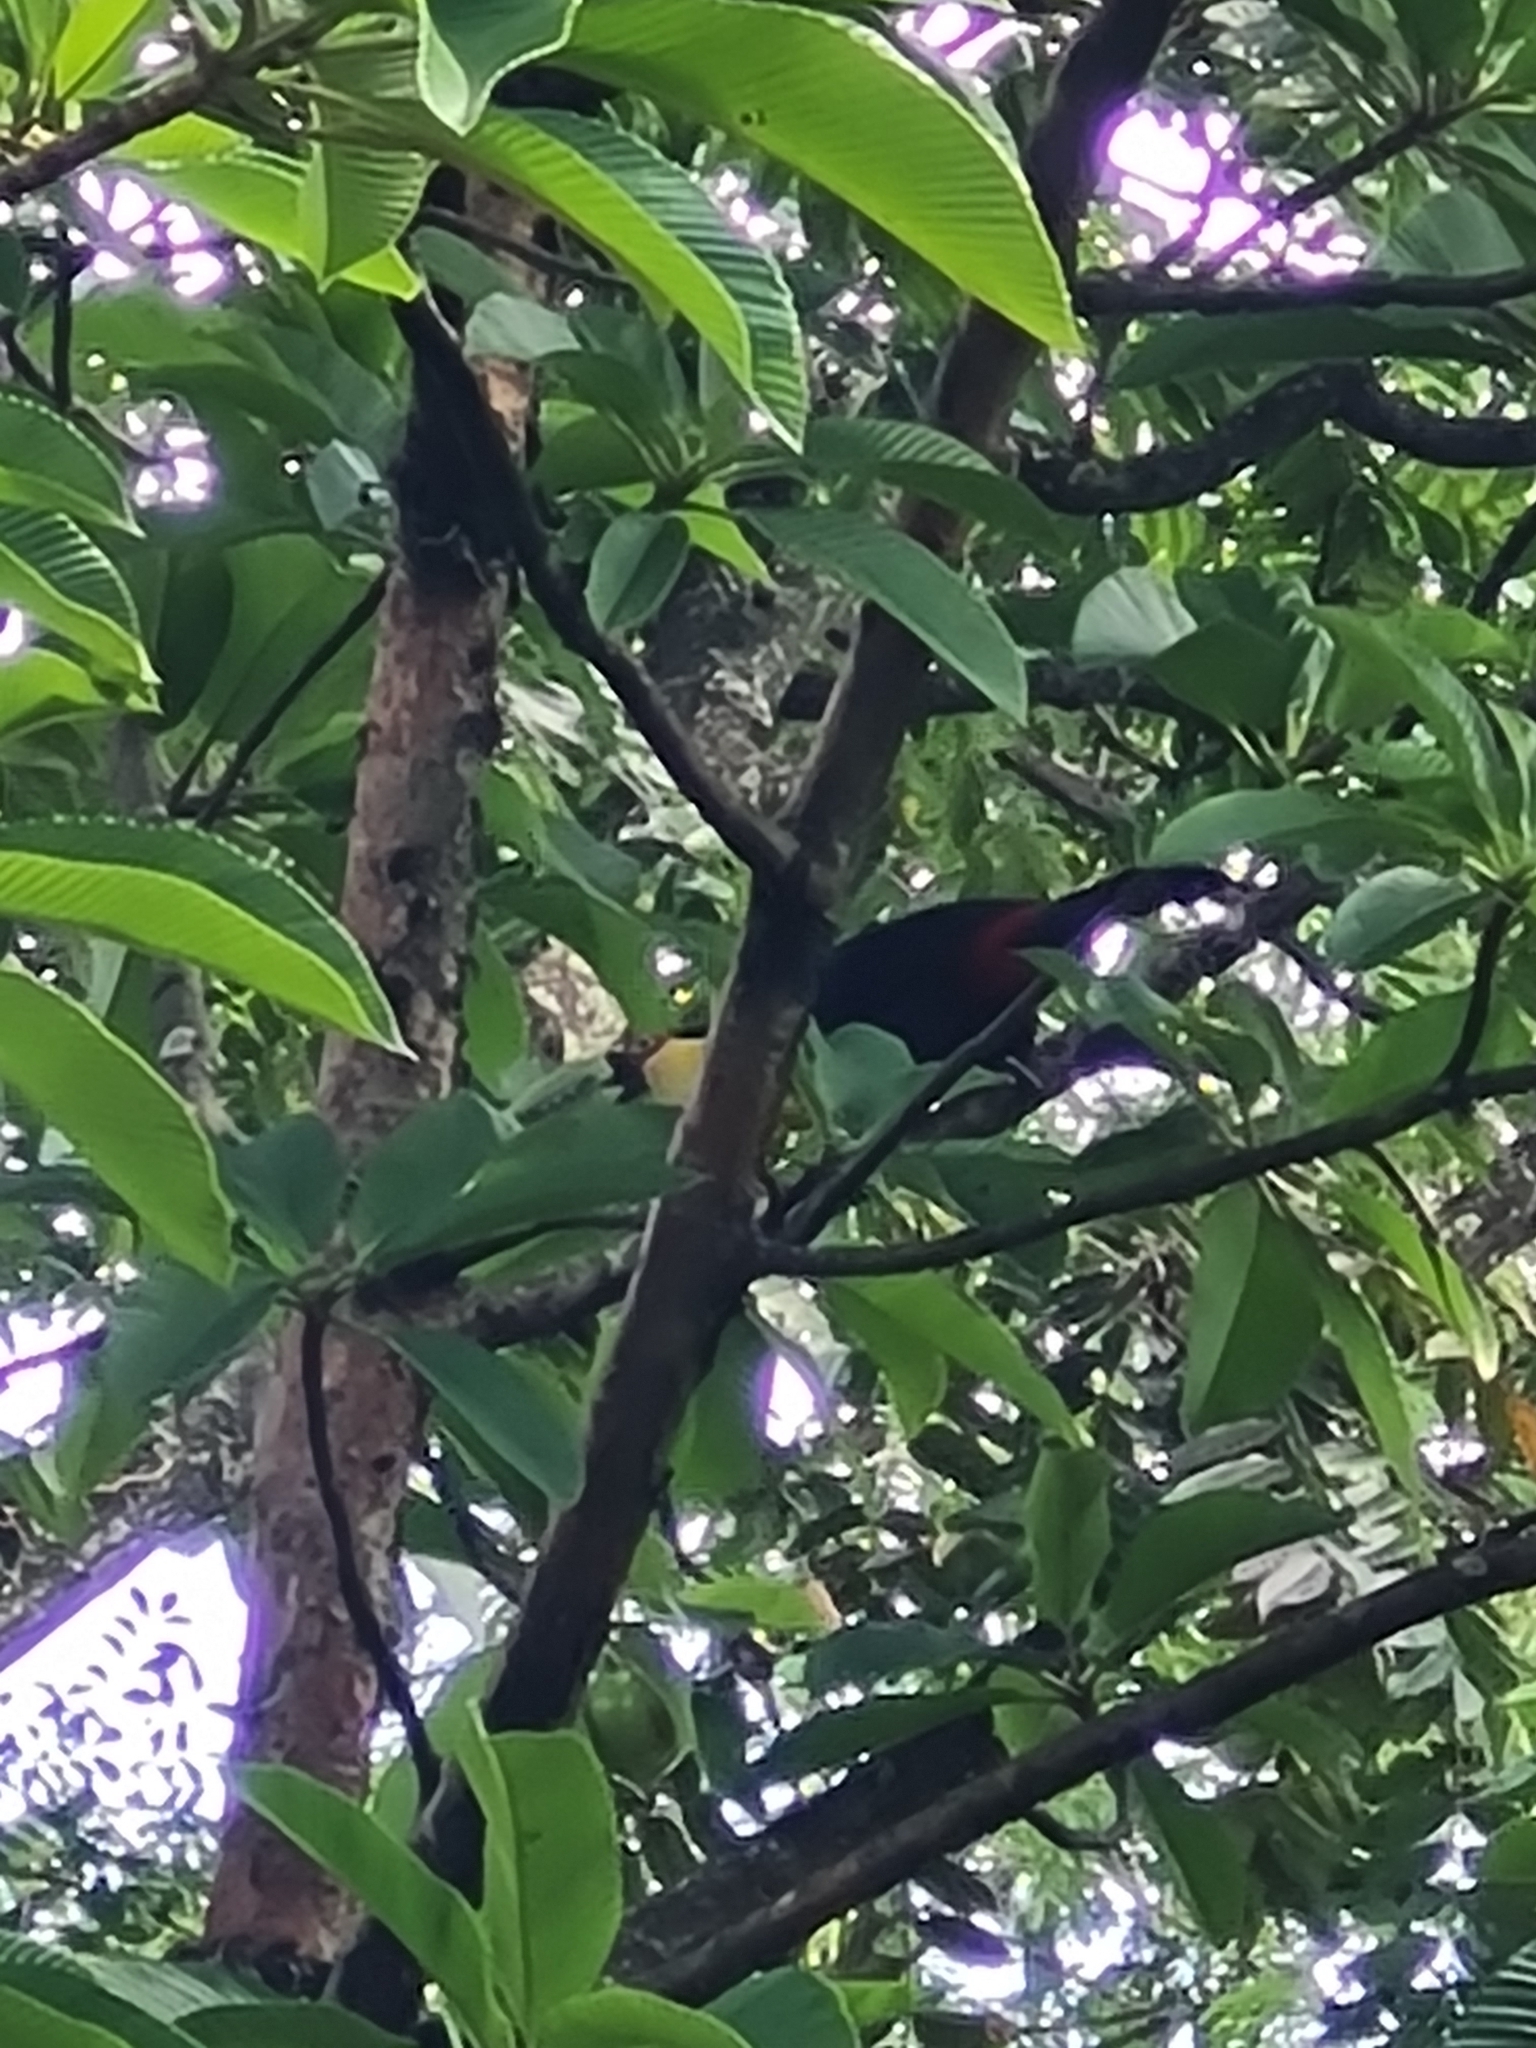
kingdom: Animalia
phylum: Chordata
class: Aves
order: Piciformes
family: Ramphastidae
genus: Ramphastos
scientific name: Ramphastos dicolorus
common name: Green-billed toucan
